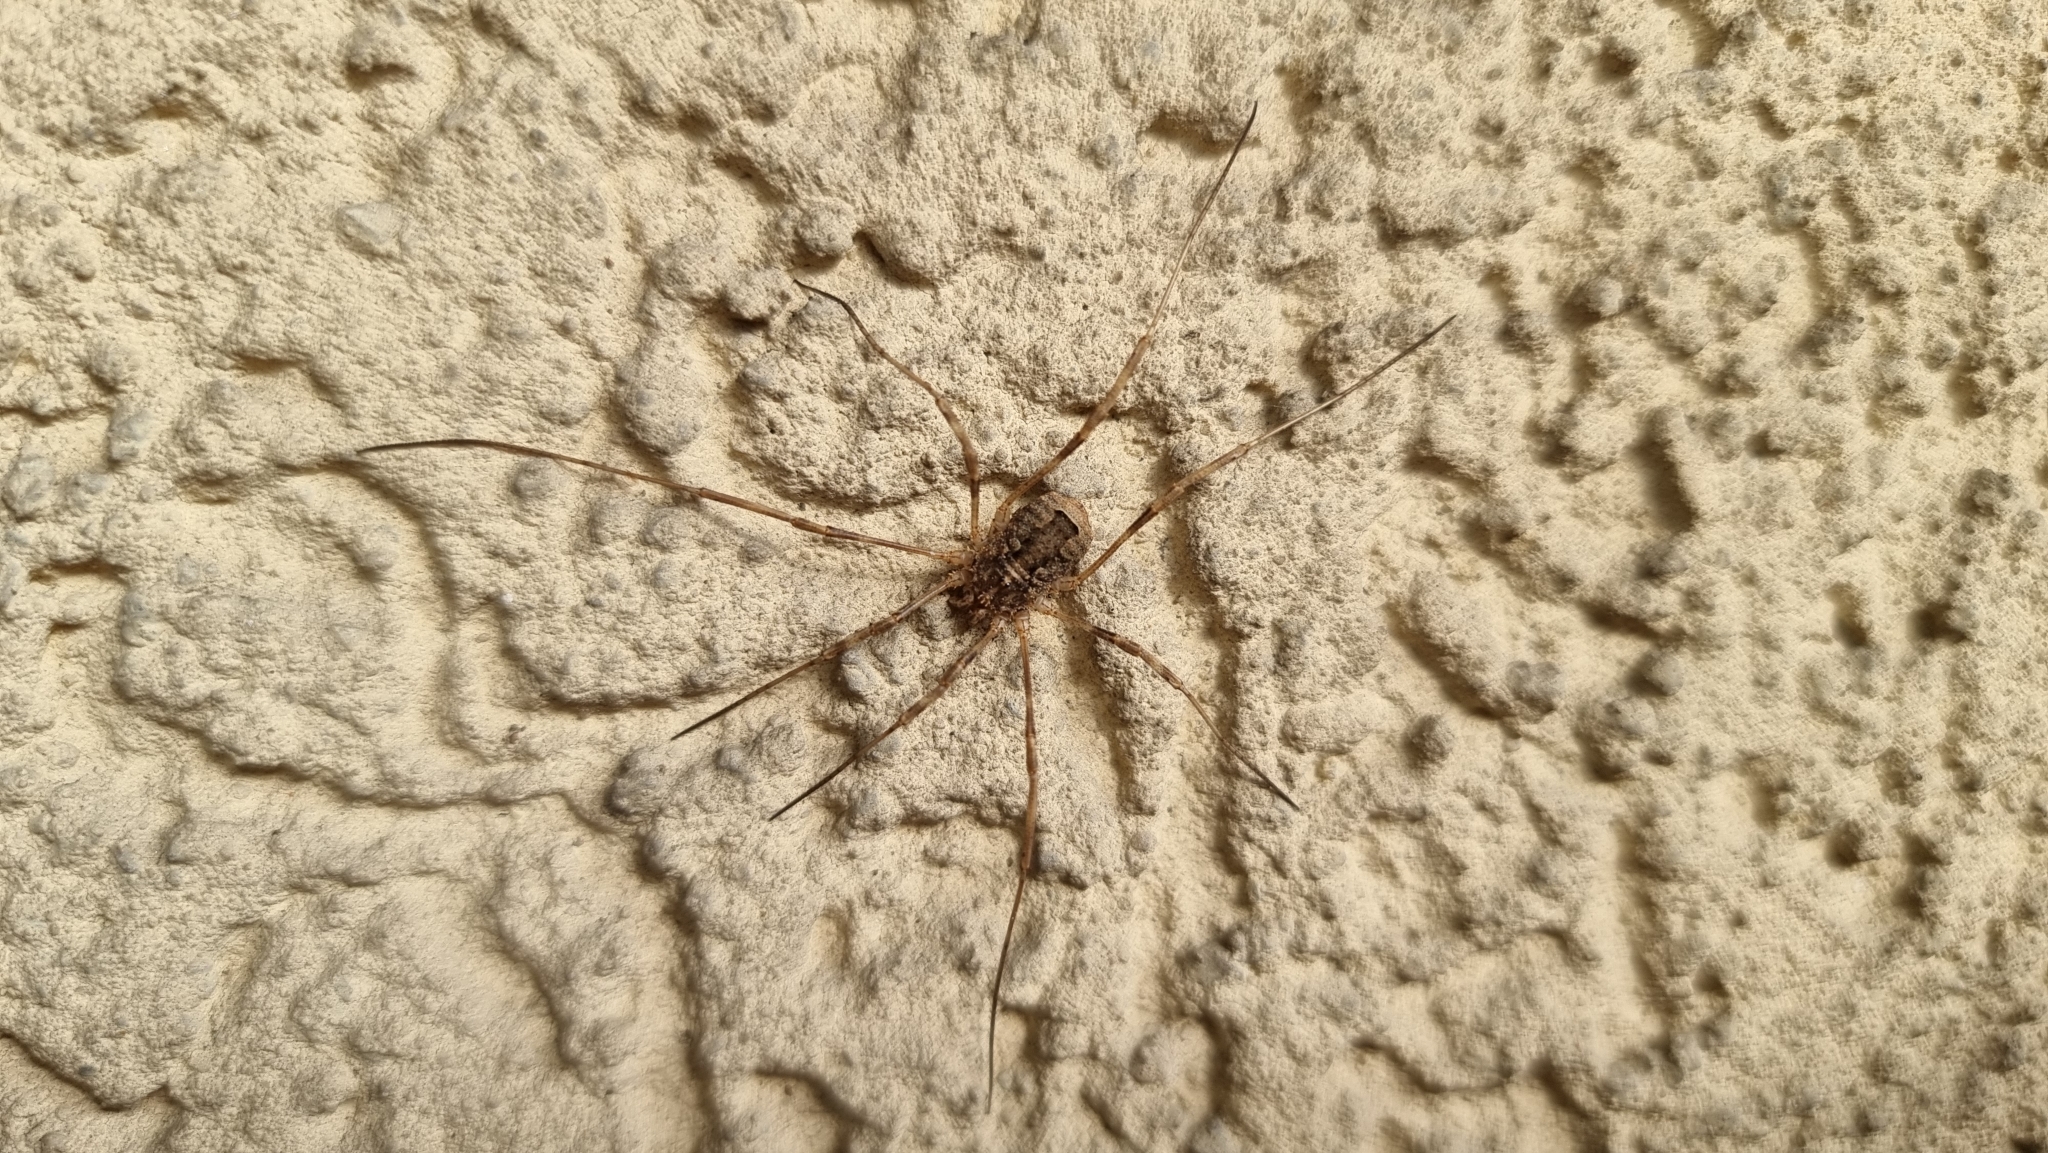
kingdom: Animalia
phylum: Arthropoda
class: Arachnida
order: Opiliones
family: Phalangiidae
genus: Odiellus
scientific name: Odiellus spinosus
